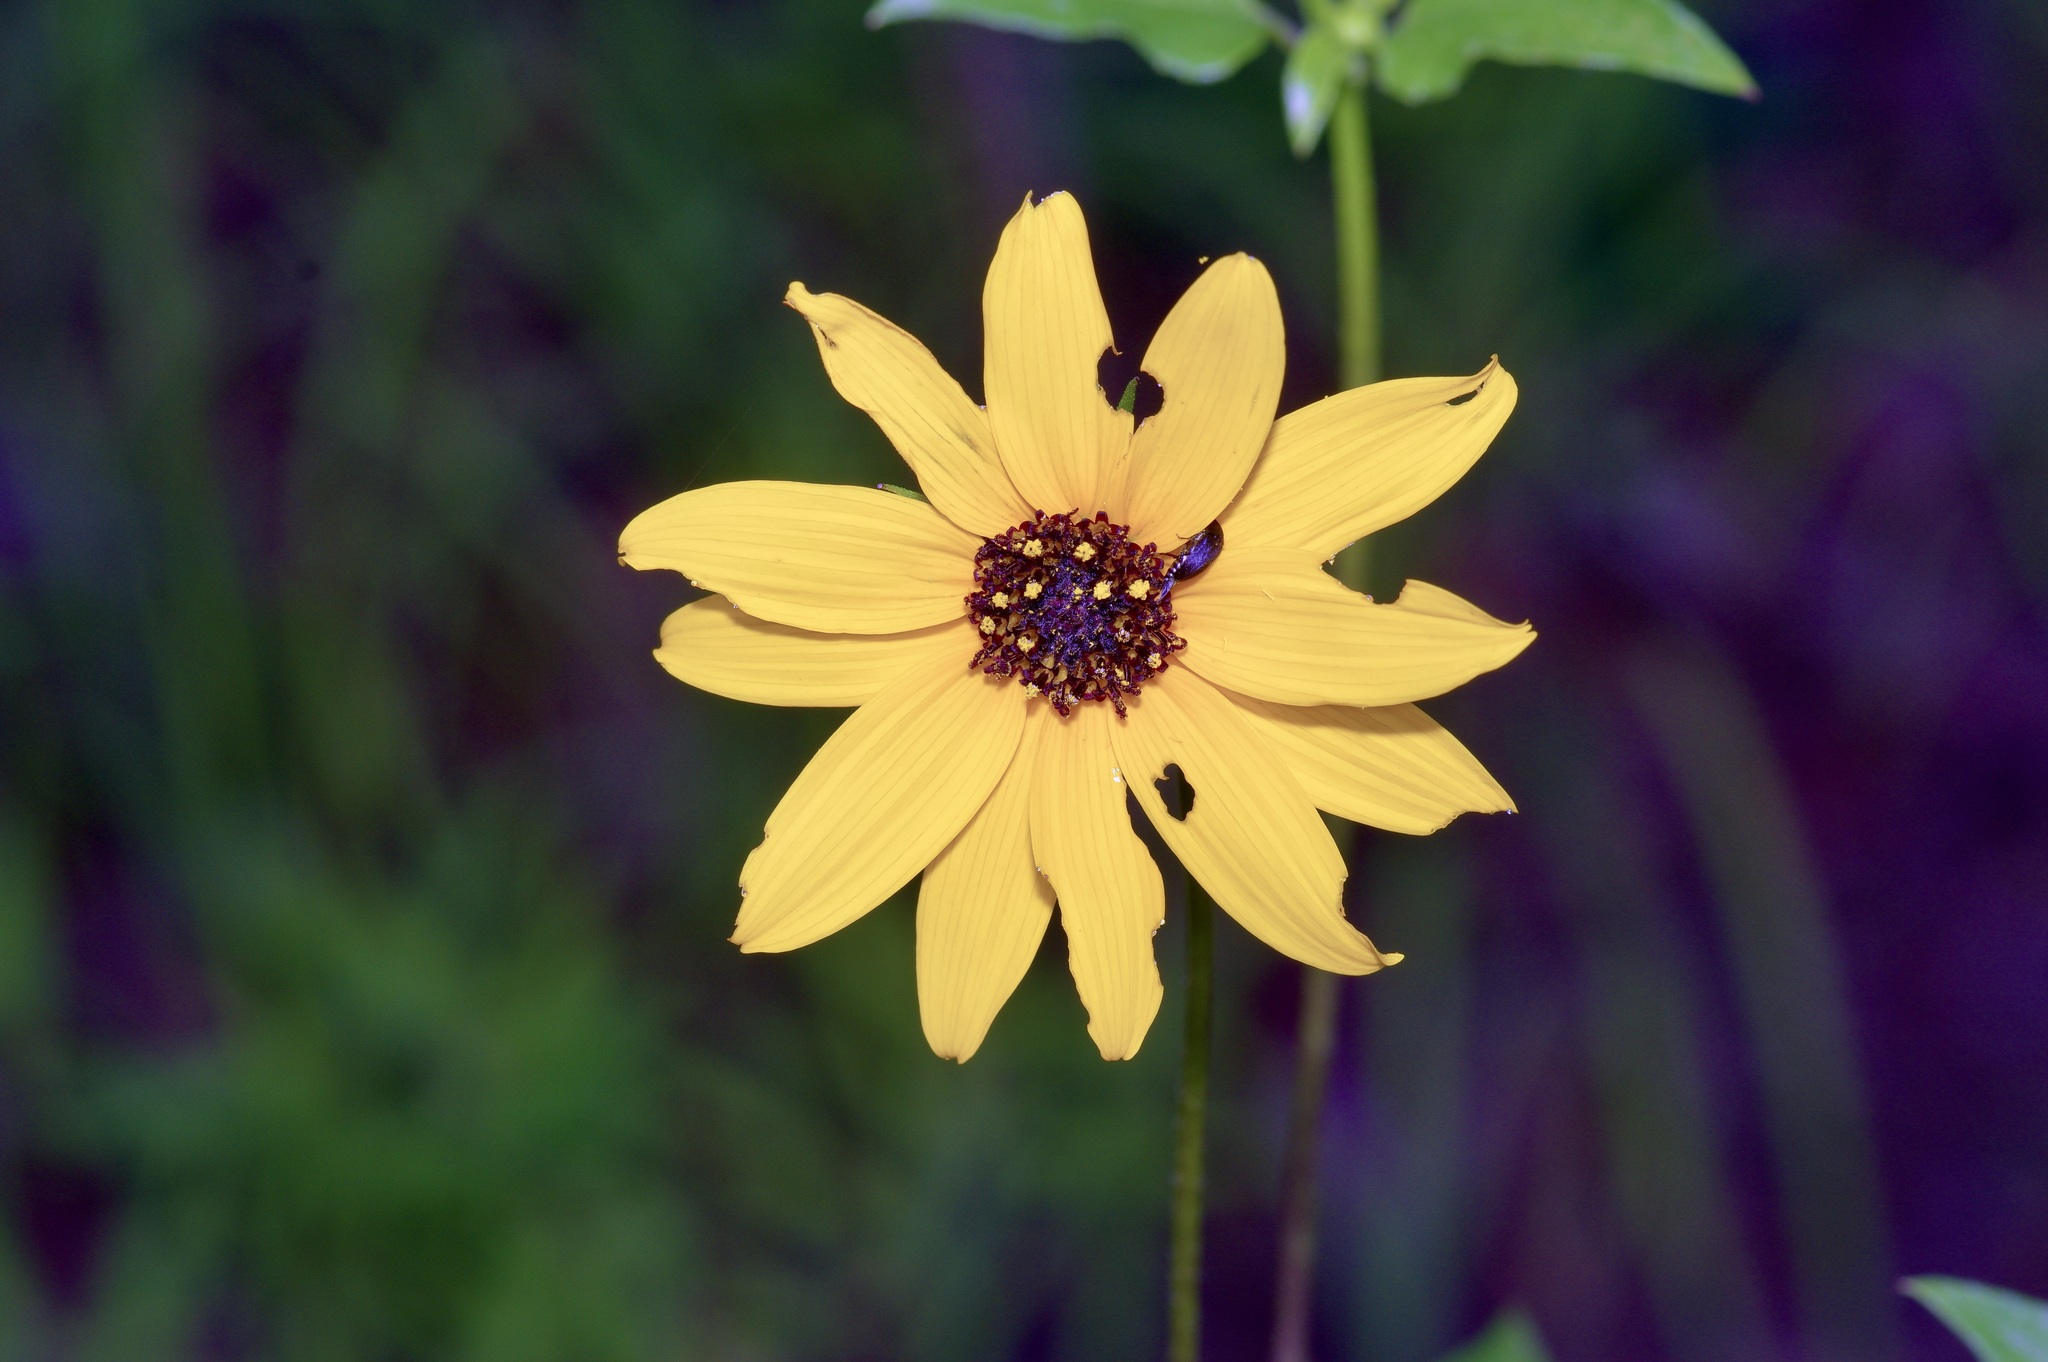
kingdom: Plantae
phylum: Tracheophyta
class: Magnoliopsida
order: Asterales
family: Asteraceae
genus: Helianthus
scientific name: Helianthus debilis
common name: Weak sunflower
